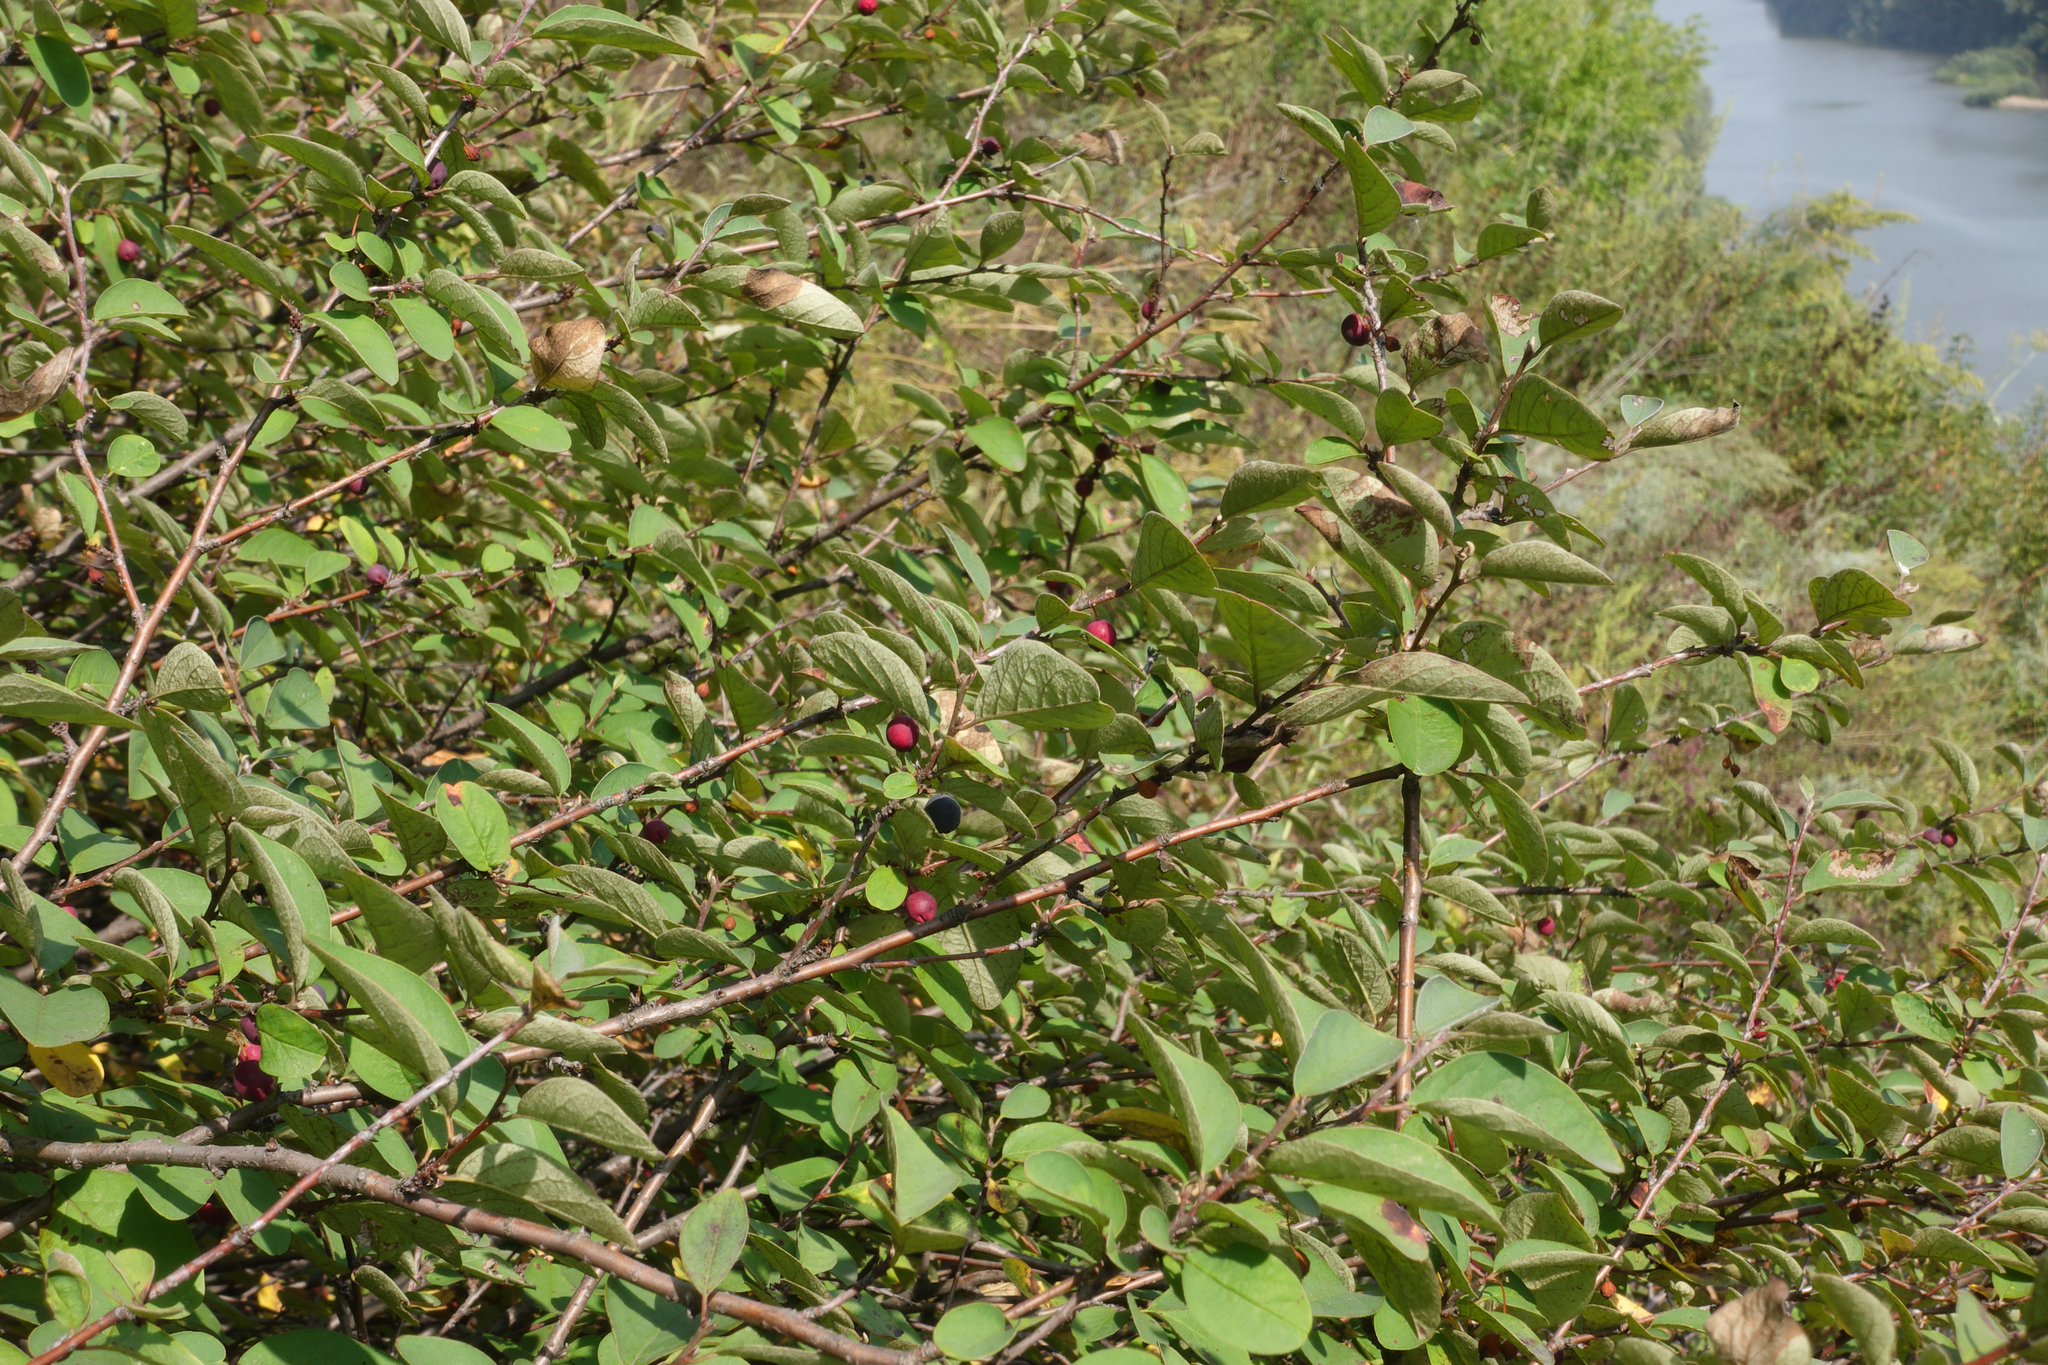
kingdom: Plantae
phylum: Tracheophyta
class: Magnoliopsida
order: Rosales
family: Rosaceae
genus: Cotoneaster
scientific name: Cotoneaster melanocarpus
